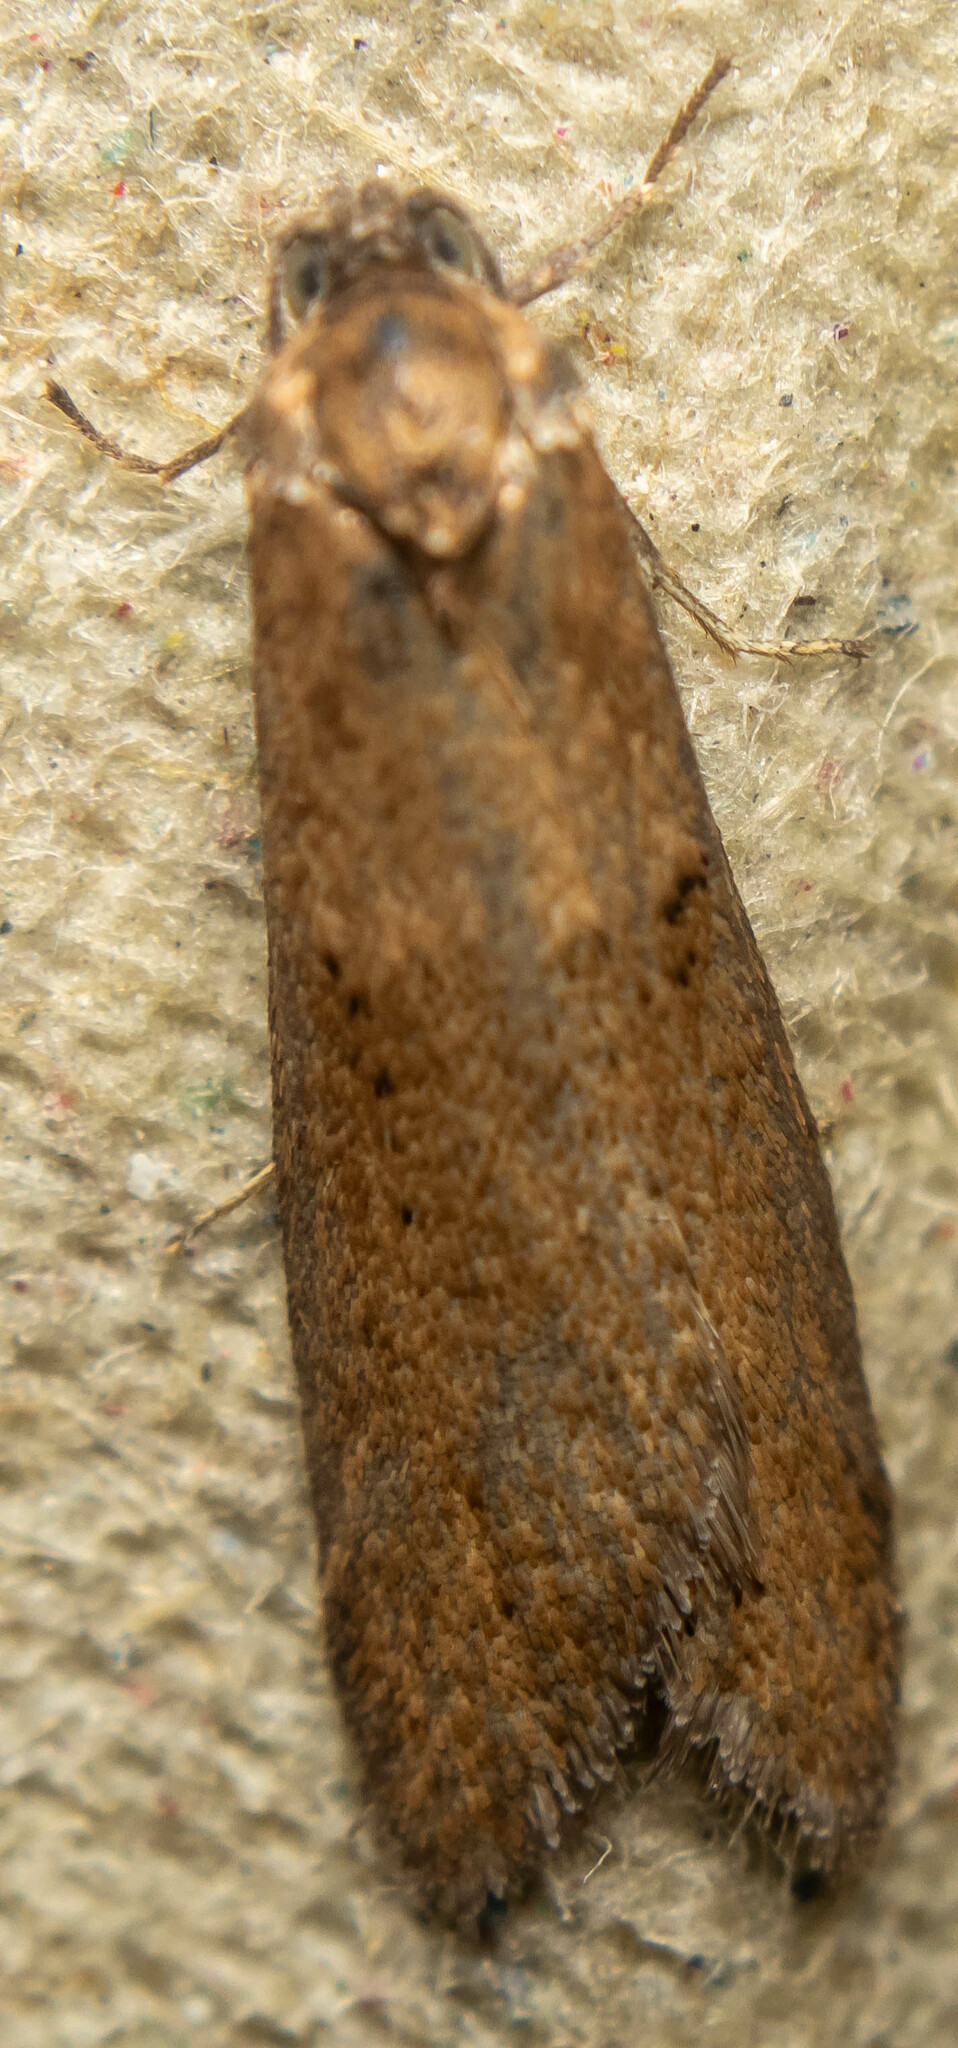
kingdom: Animalia
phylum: Arthropoda
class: Insecta
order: Lepidoptera
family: Tortricidae
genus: Tortricodes
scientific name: Tortricodes alternella
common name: Winter shade
